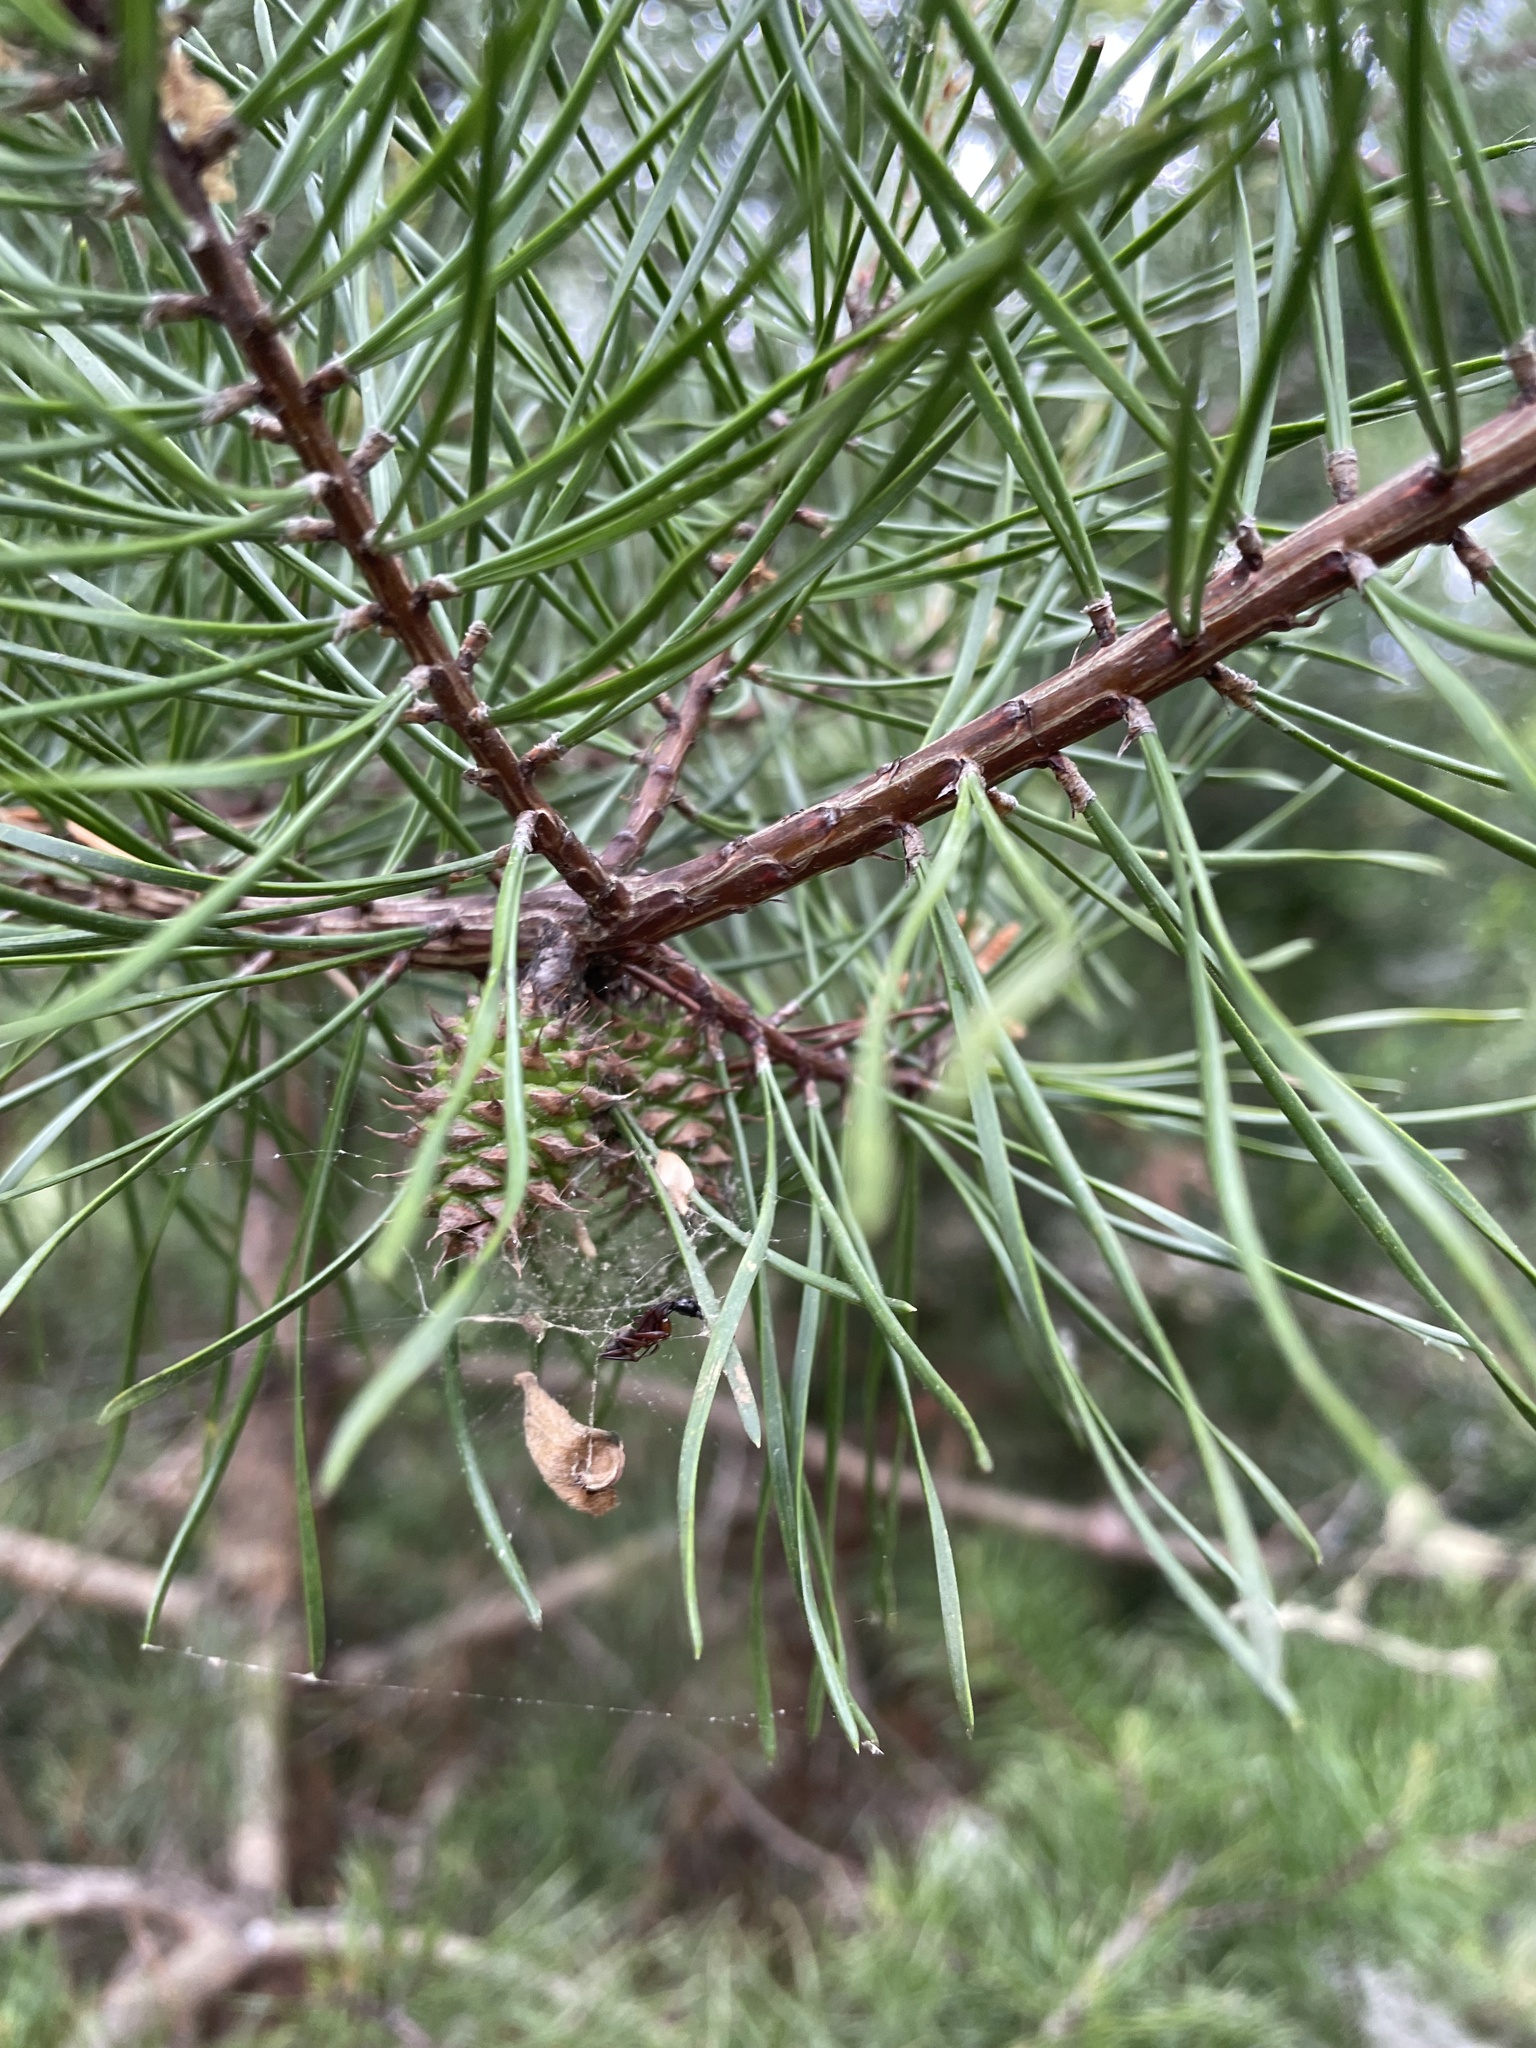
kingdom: Plantae
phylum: Tracheophyta
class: Pinopsida
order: Pinales
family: Pinaceae
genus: Pinus
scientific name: Pinus virginiana
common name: Scrub pine
